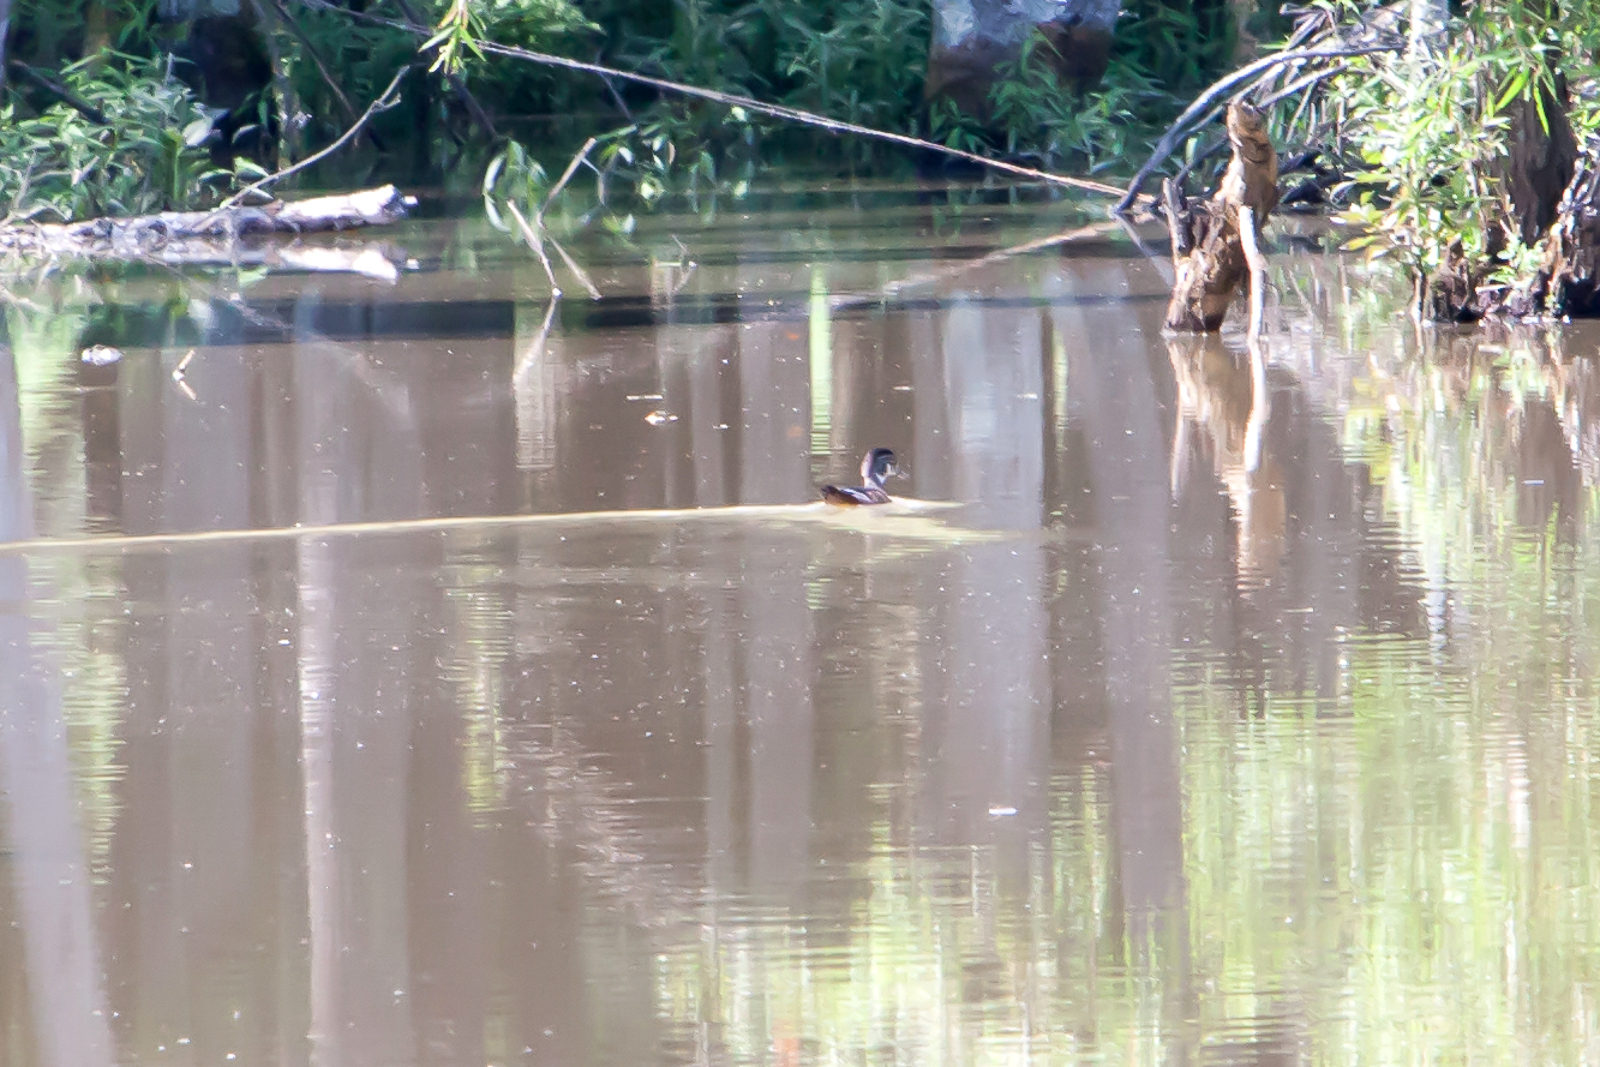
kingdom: Animalia
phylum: Chordata
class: Aves
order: Anseriformes
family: Anatidae
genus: Aix
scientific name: Aix sponsa
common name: Wood duck
